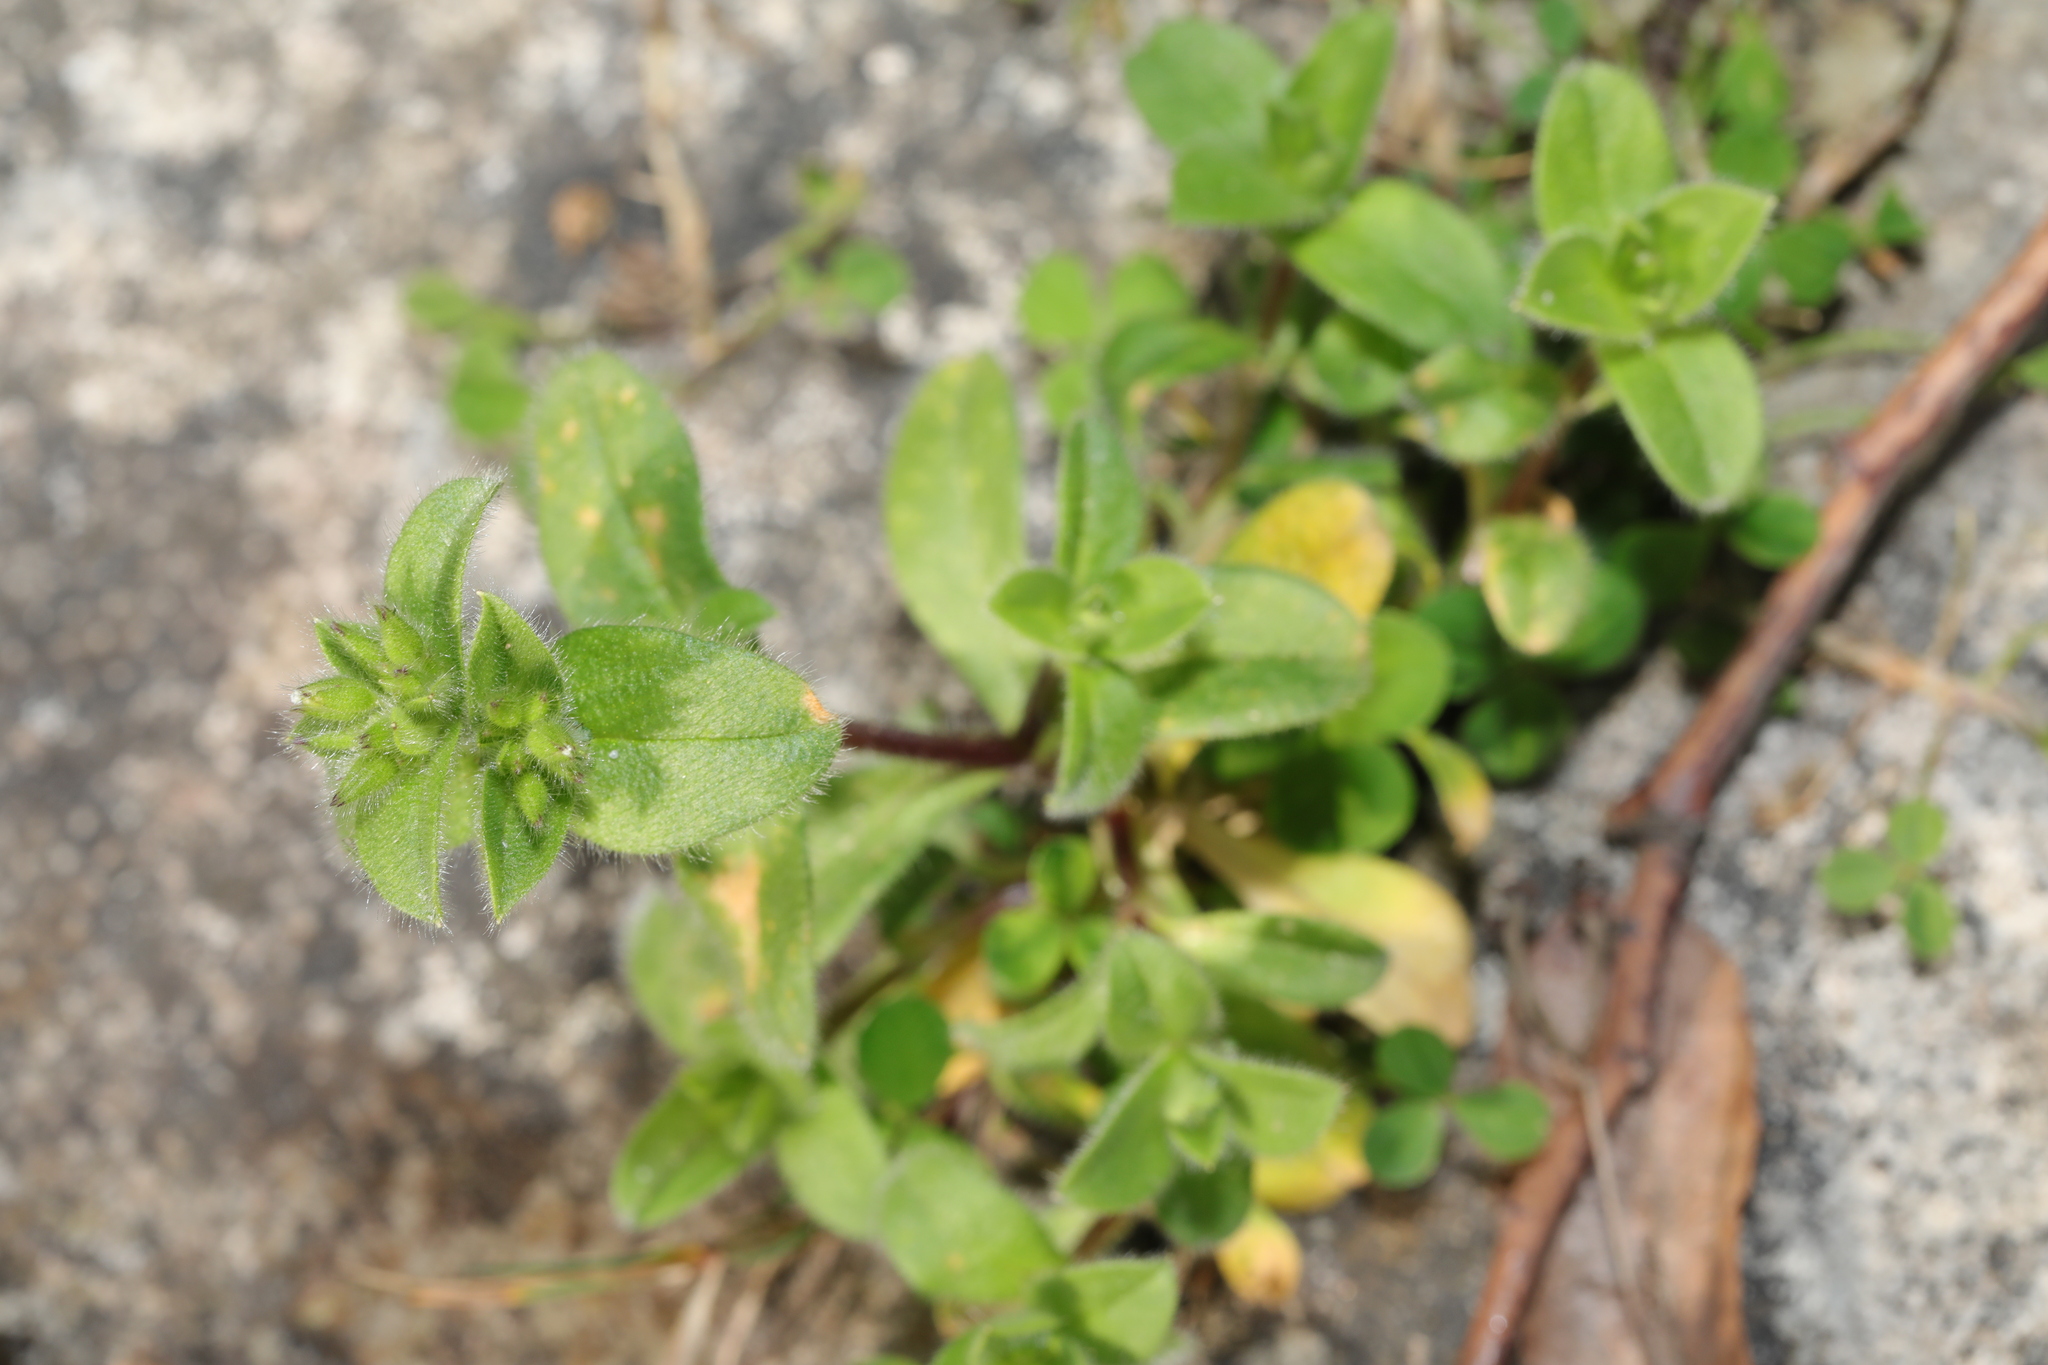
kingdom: Plantae
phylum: Tracheophyta
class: Magnoliopsida
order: Caryophyllales
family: Caryophyllaceae
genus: Cerastium
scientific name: Cerastium glomeratum
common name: Sticky chickweed
